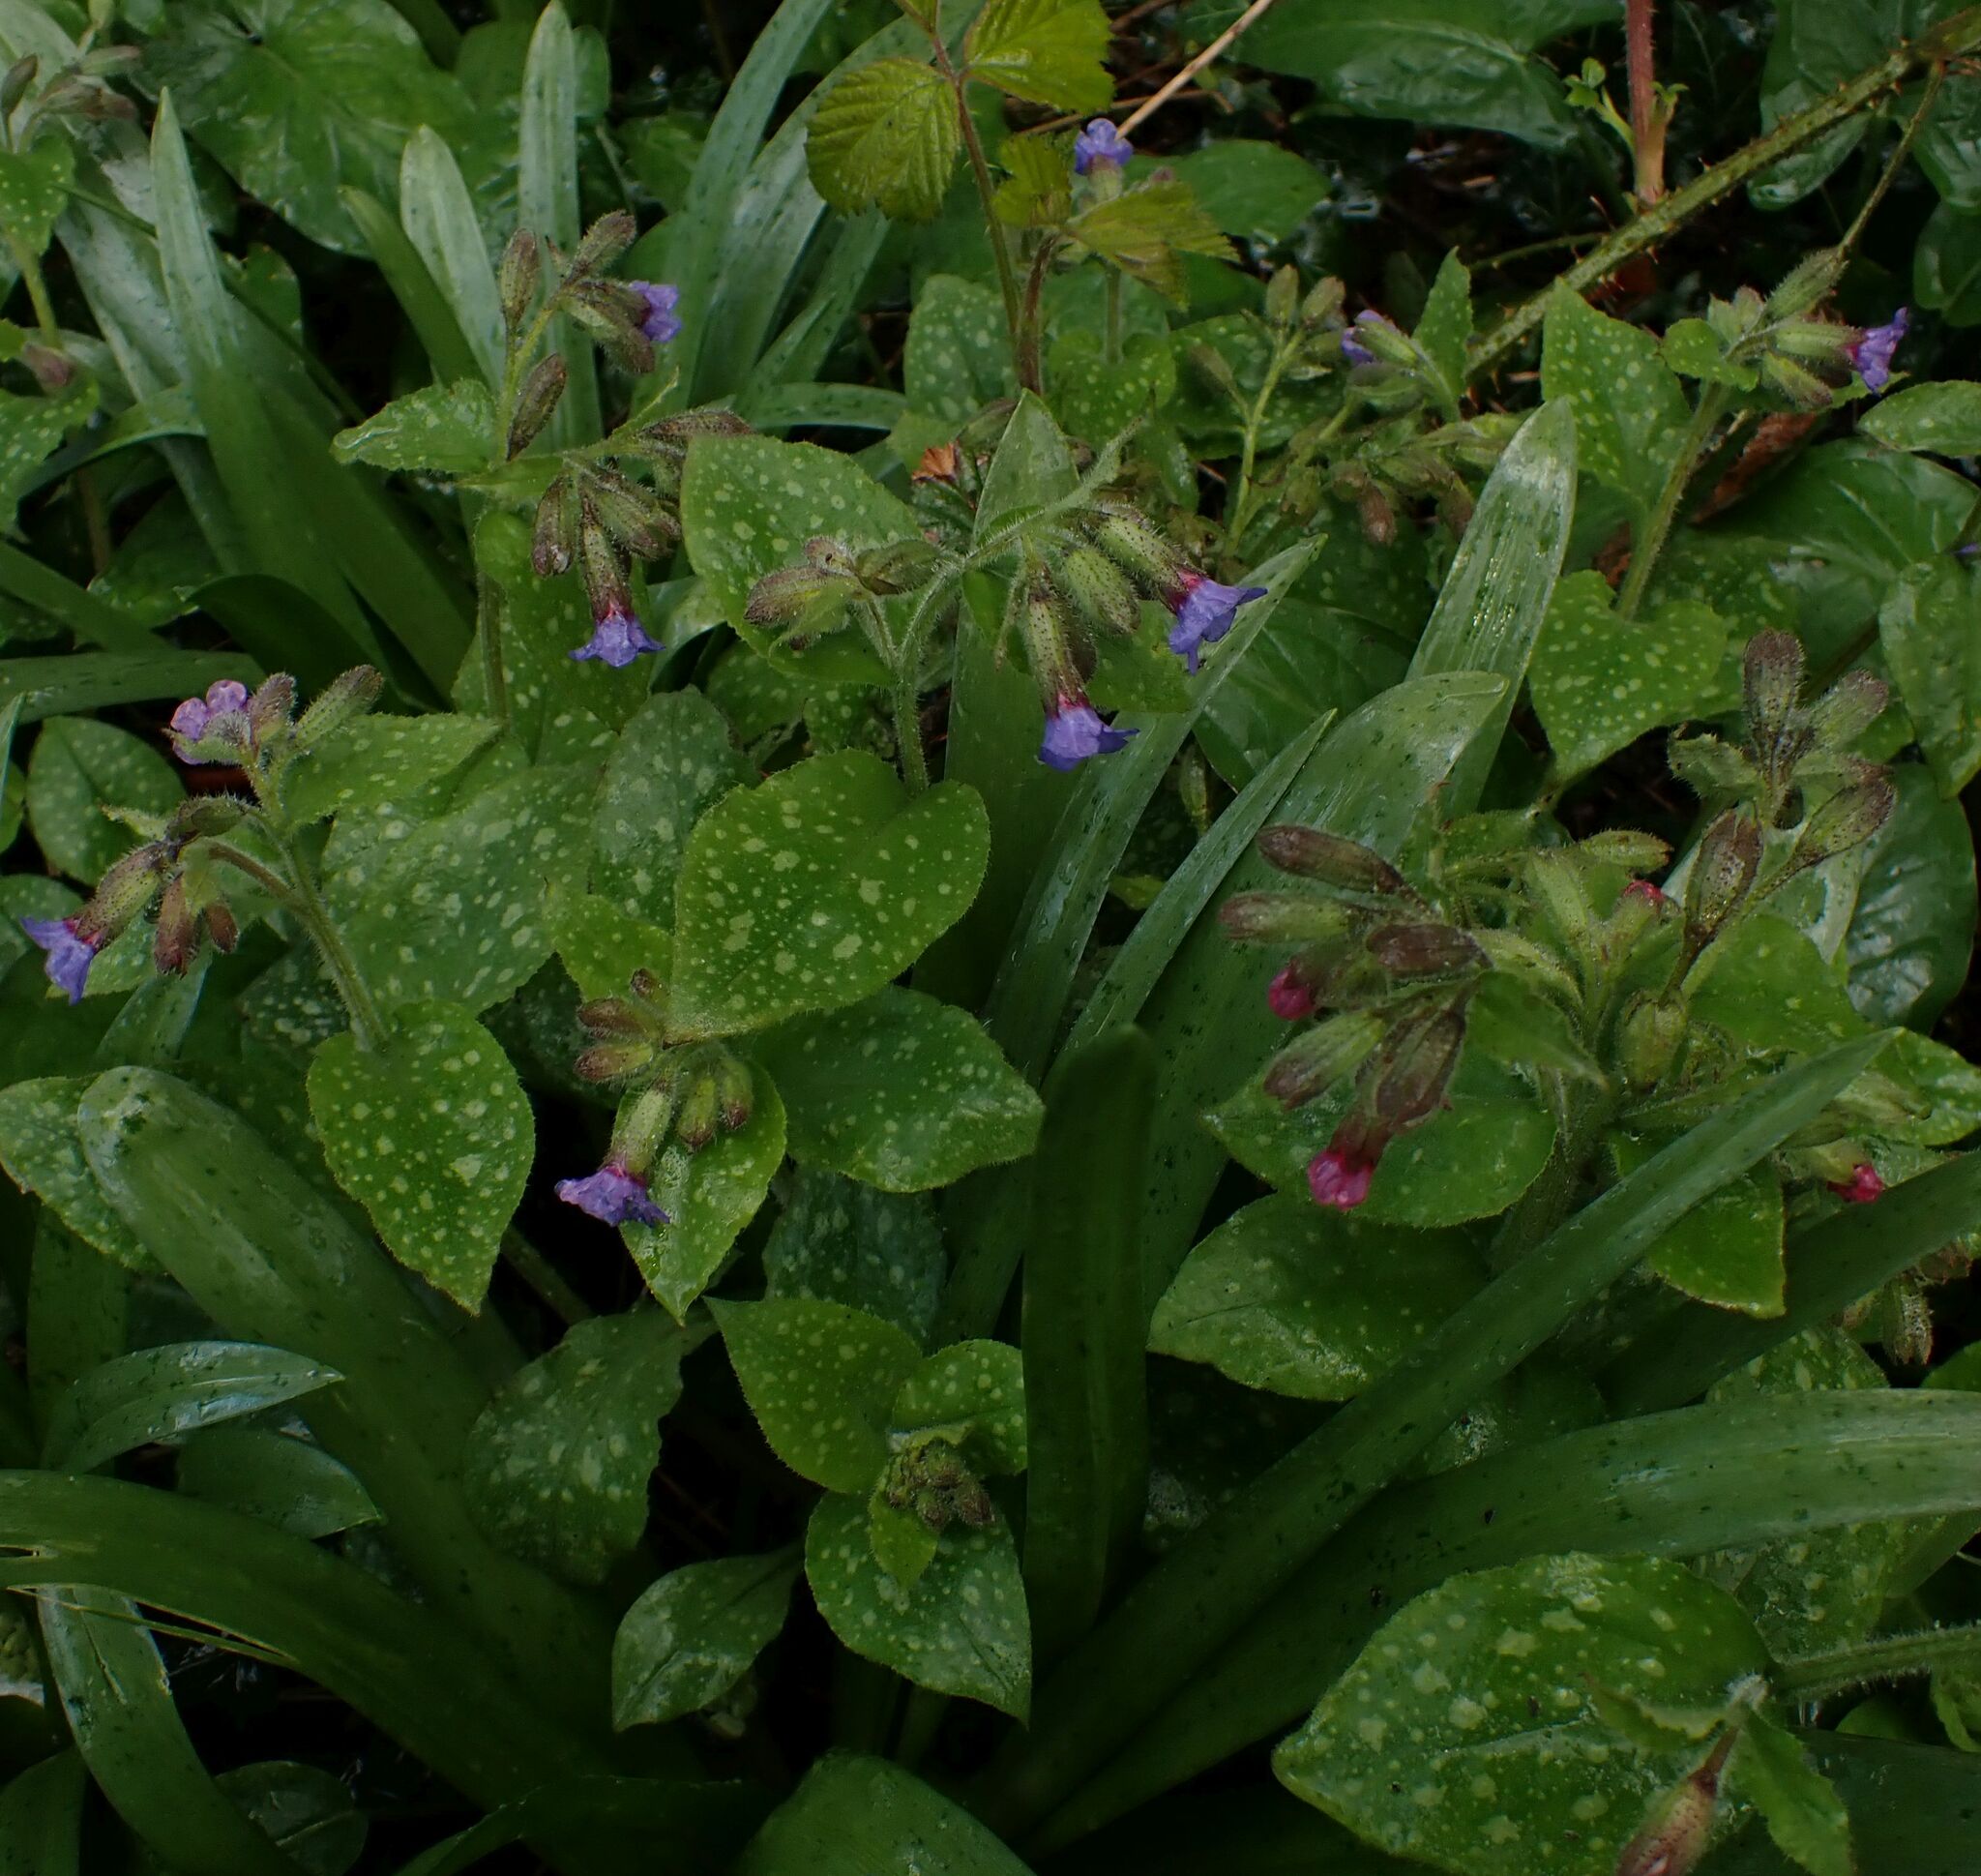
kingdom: Plantae
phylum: Tracheophyta
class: Magnoliopsida
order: Boraginales
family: Boraginaceae
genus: Pulmonaria
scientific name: Pulmonaria officinalis
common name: Lungwort
